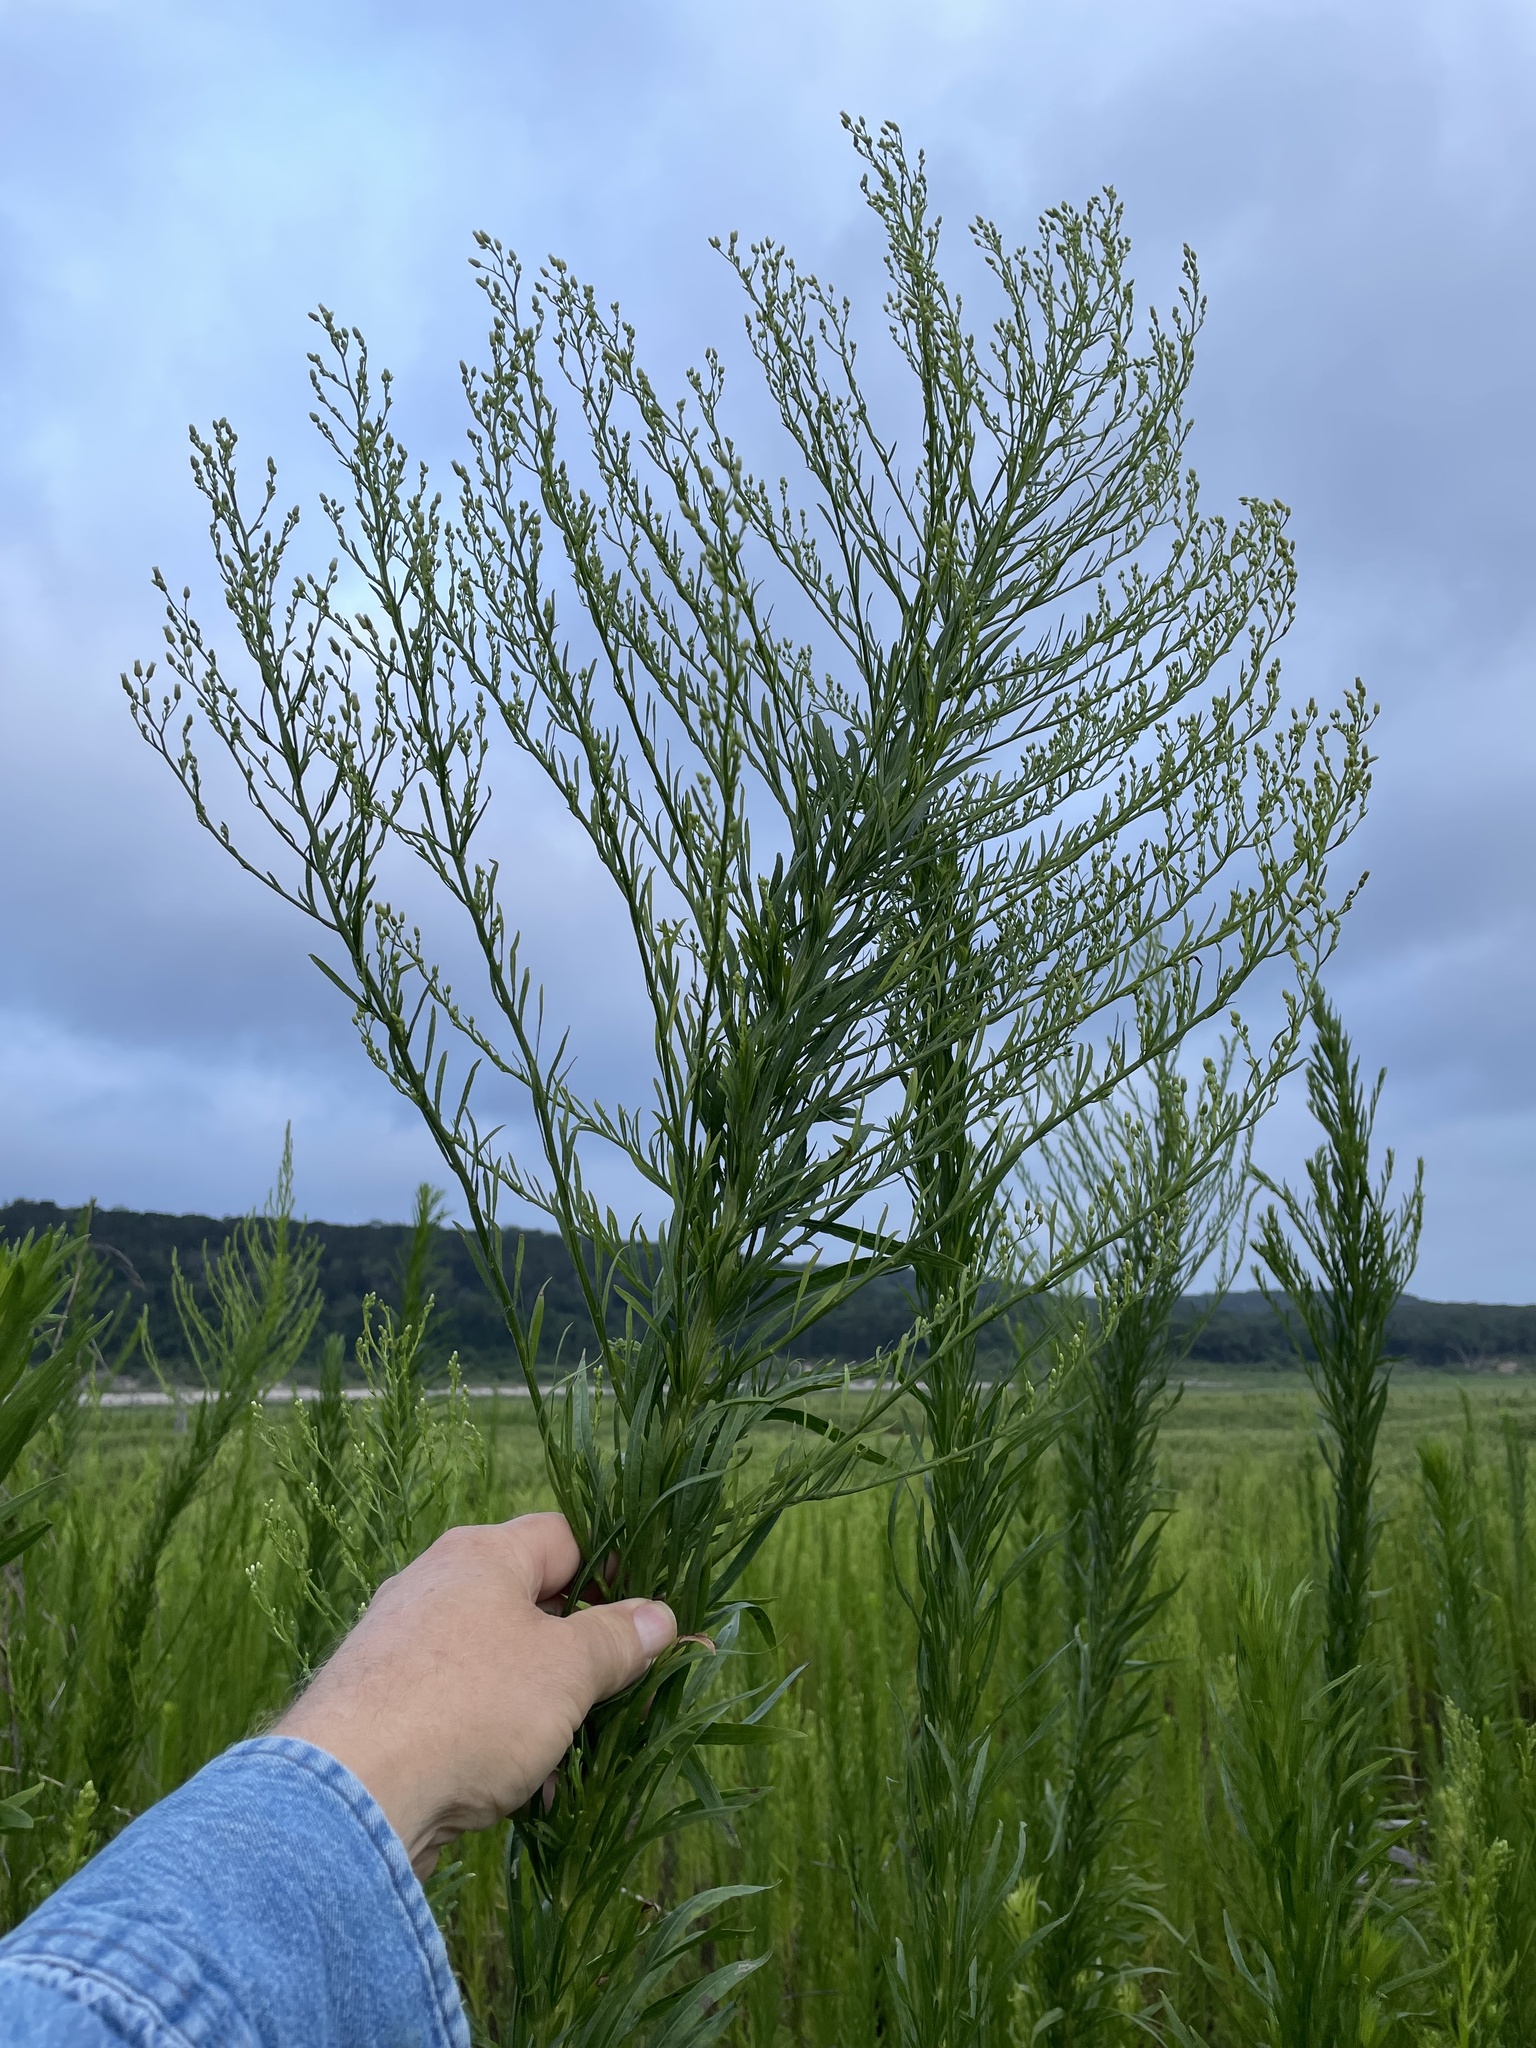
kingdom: Plantae
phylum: Tracheophyta
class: Magnoliopsida
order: Asterales
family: Asteraceae
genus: Erigeron
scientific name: Erigeron canadensis
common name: Canadian fleabane
